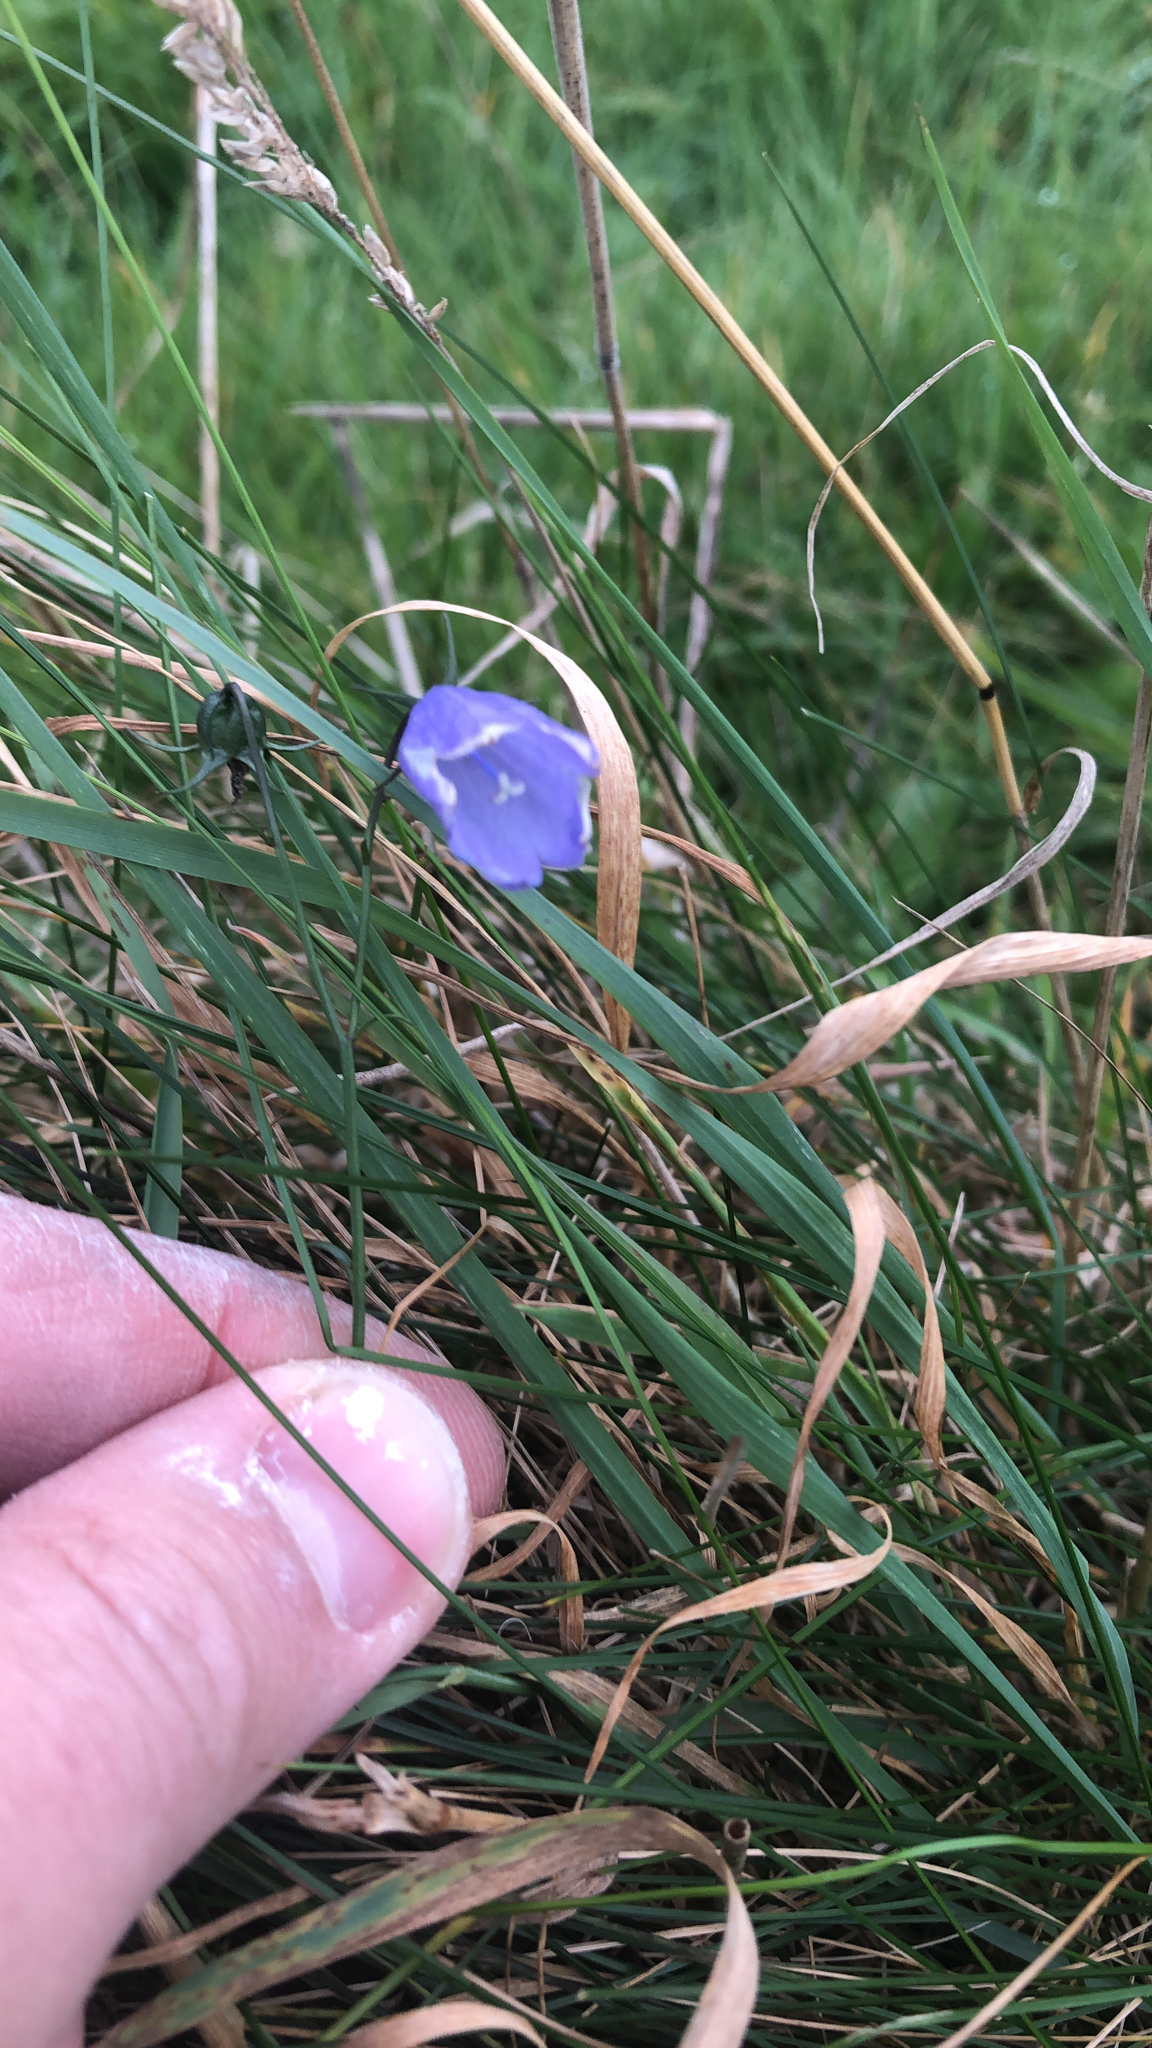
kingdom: Plantae
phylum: Tracheophyta
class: Magnoliopsida
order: Asterales
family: Campanulaceae
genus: Campanula
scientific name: Campanula rotundifolia
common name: Harebell
